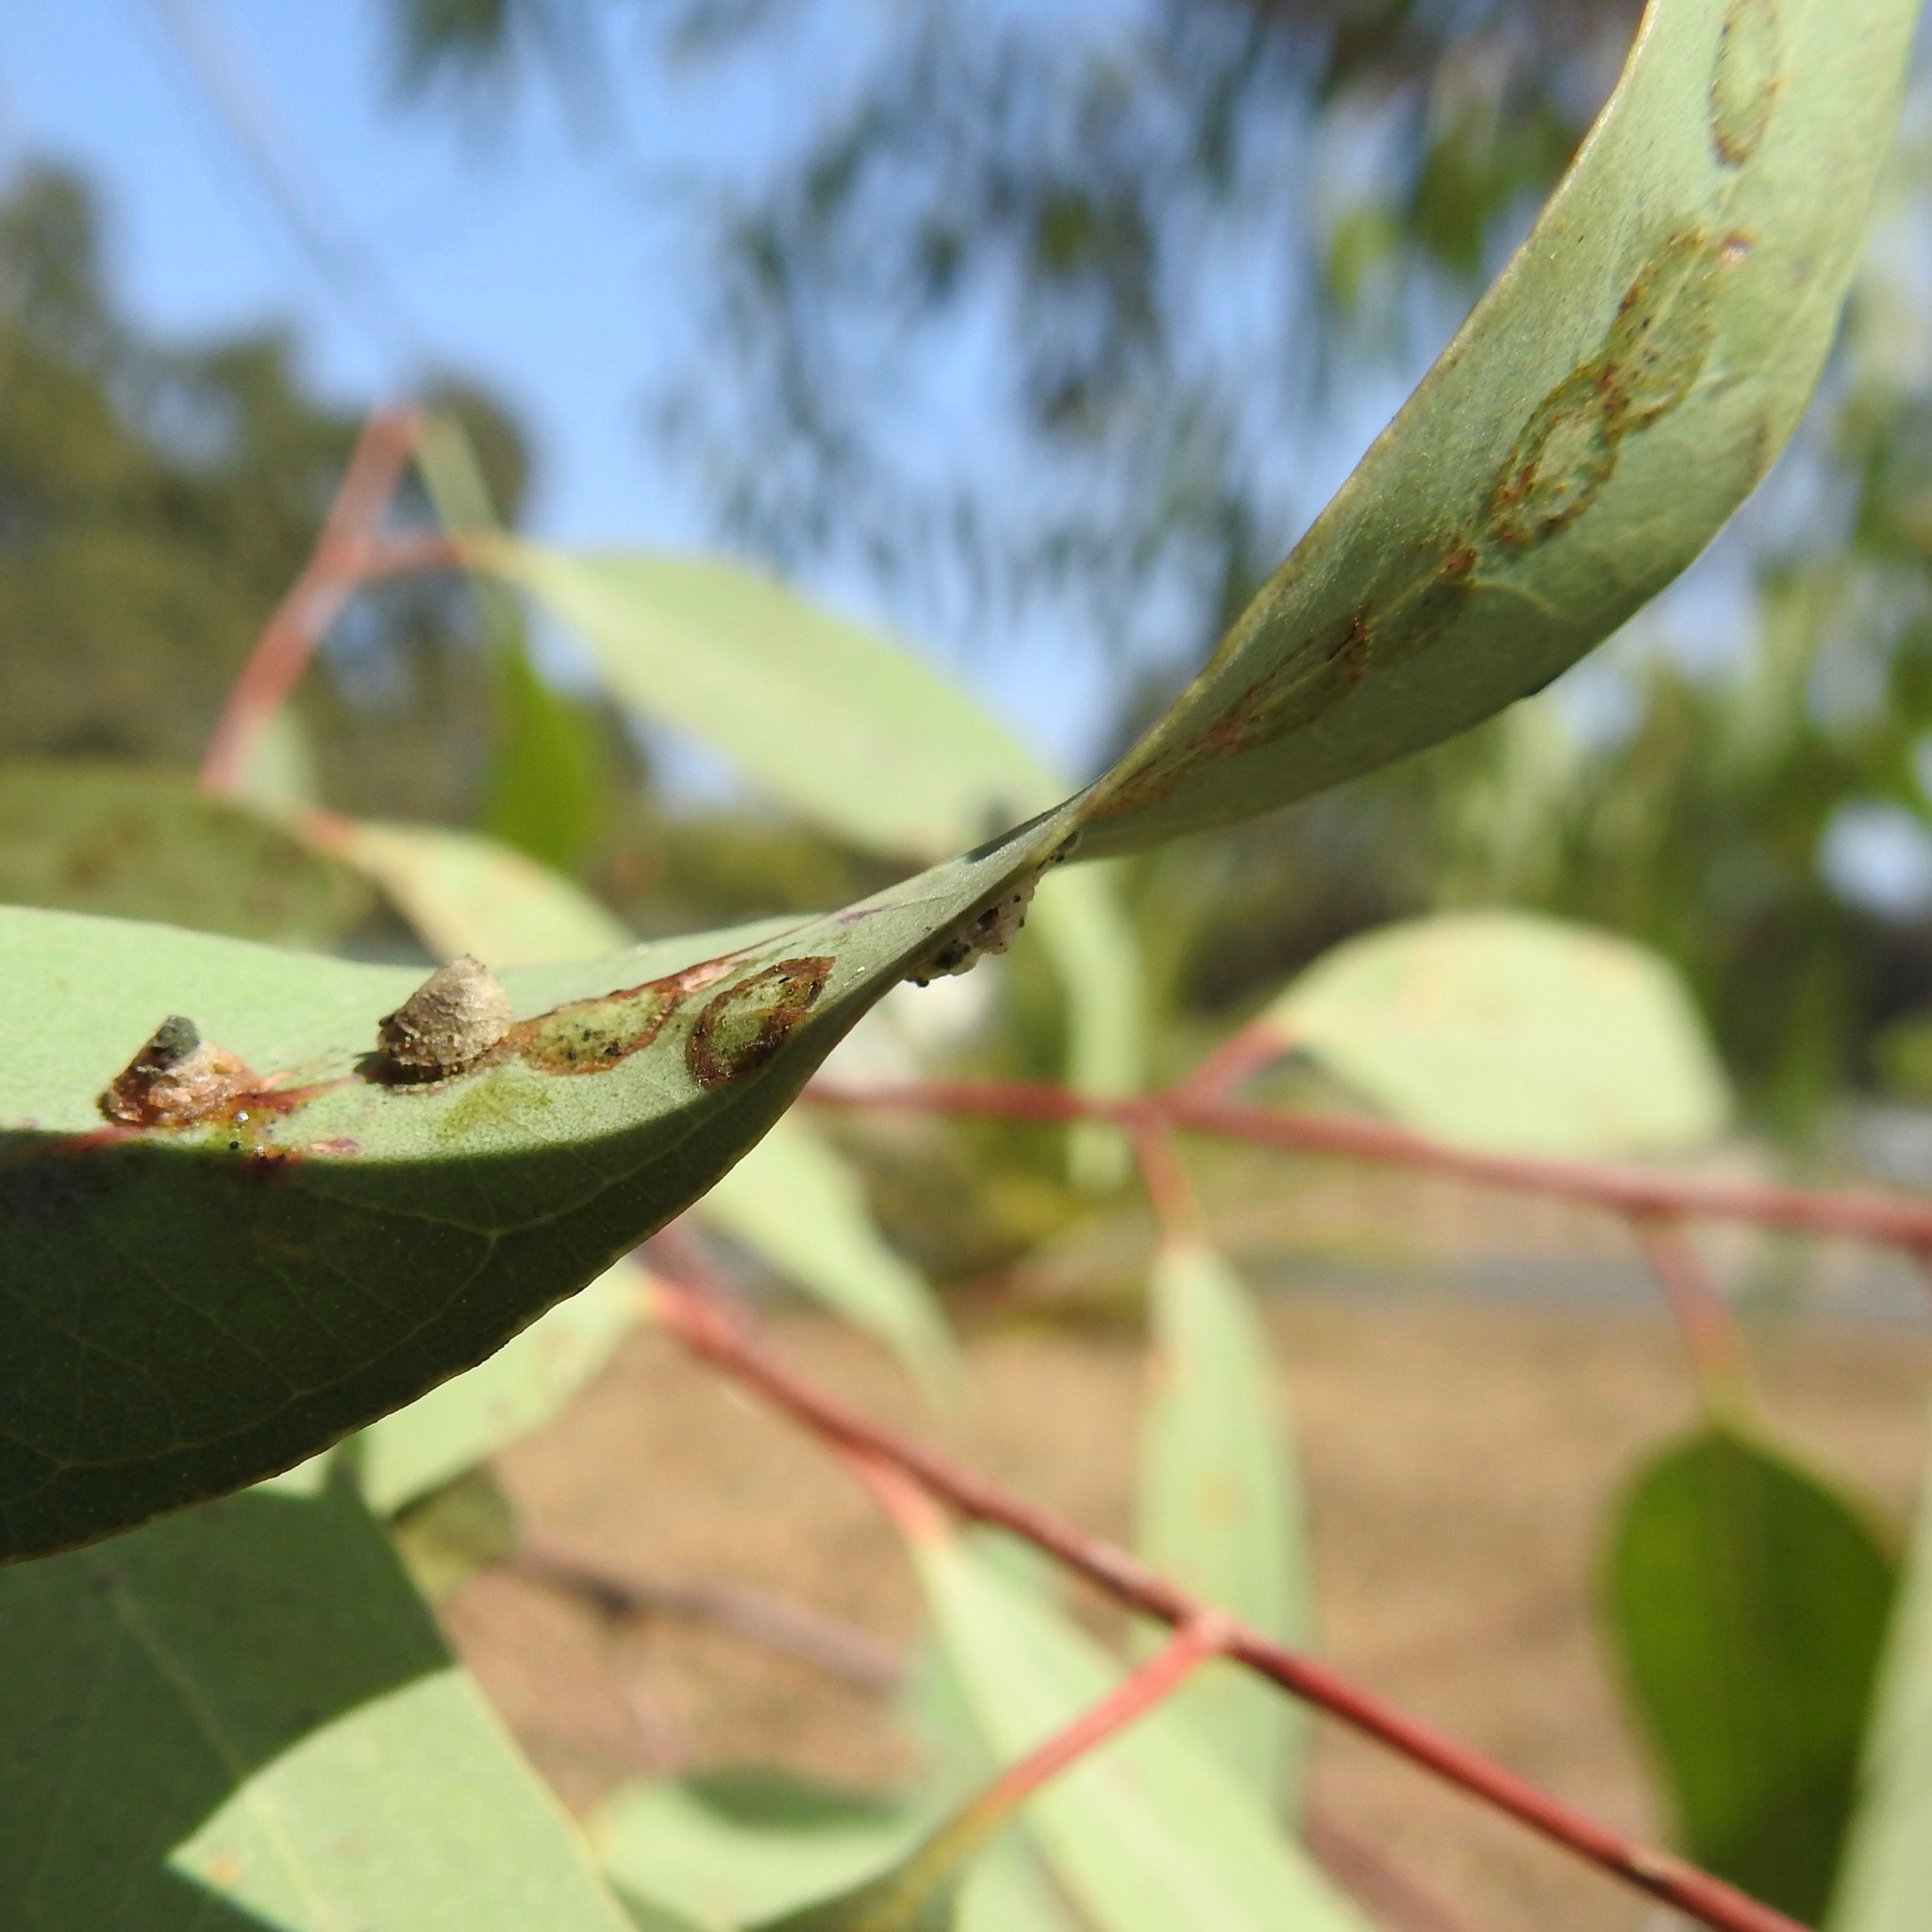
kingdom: Animalia
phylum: Arthropoda
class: Insecta
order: Hemiptera
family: Aphalaridae
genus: Glycaspis
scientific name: Glycaspis brimblecombei
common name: Red gum lerp psyllid
